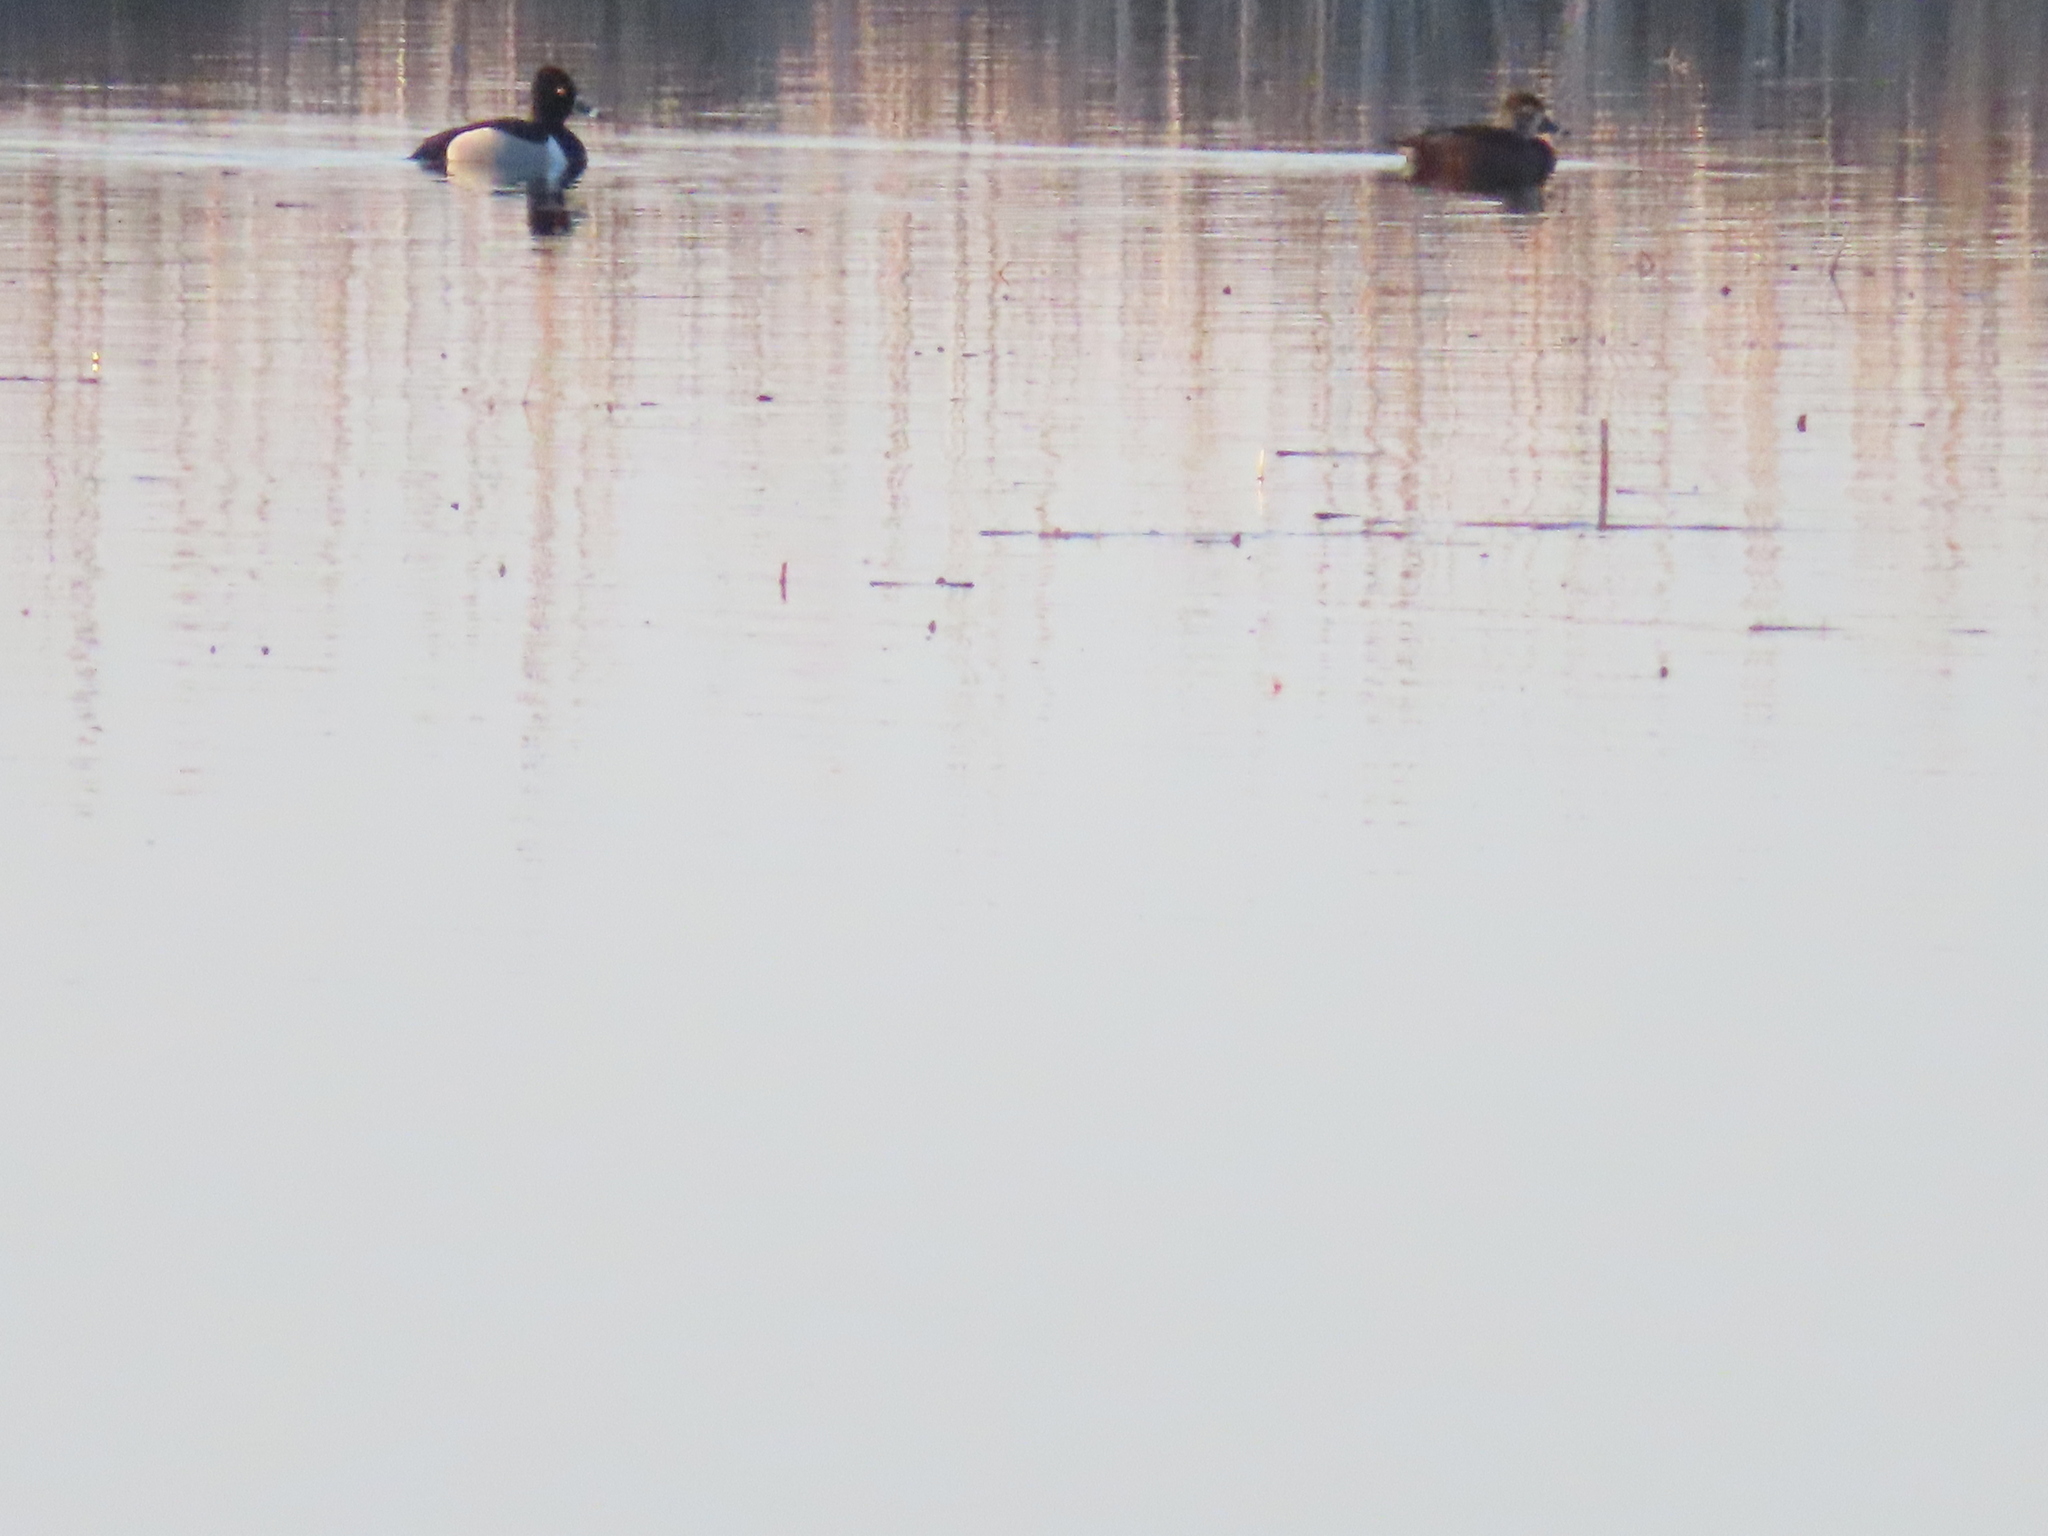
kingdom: Animalia
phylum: Chordata
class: Aves
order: Anseriformes
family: Anatidae
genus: Aythya
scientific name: Aythya collaris
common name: Ring-necked duck
